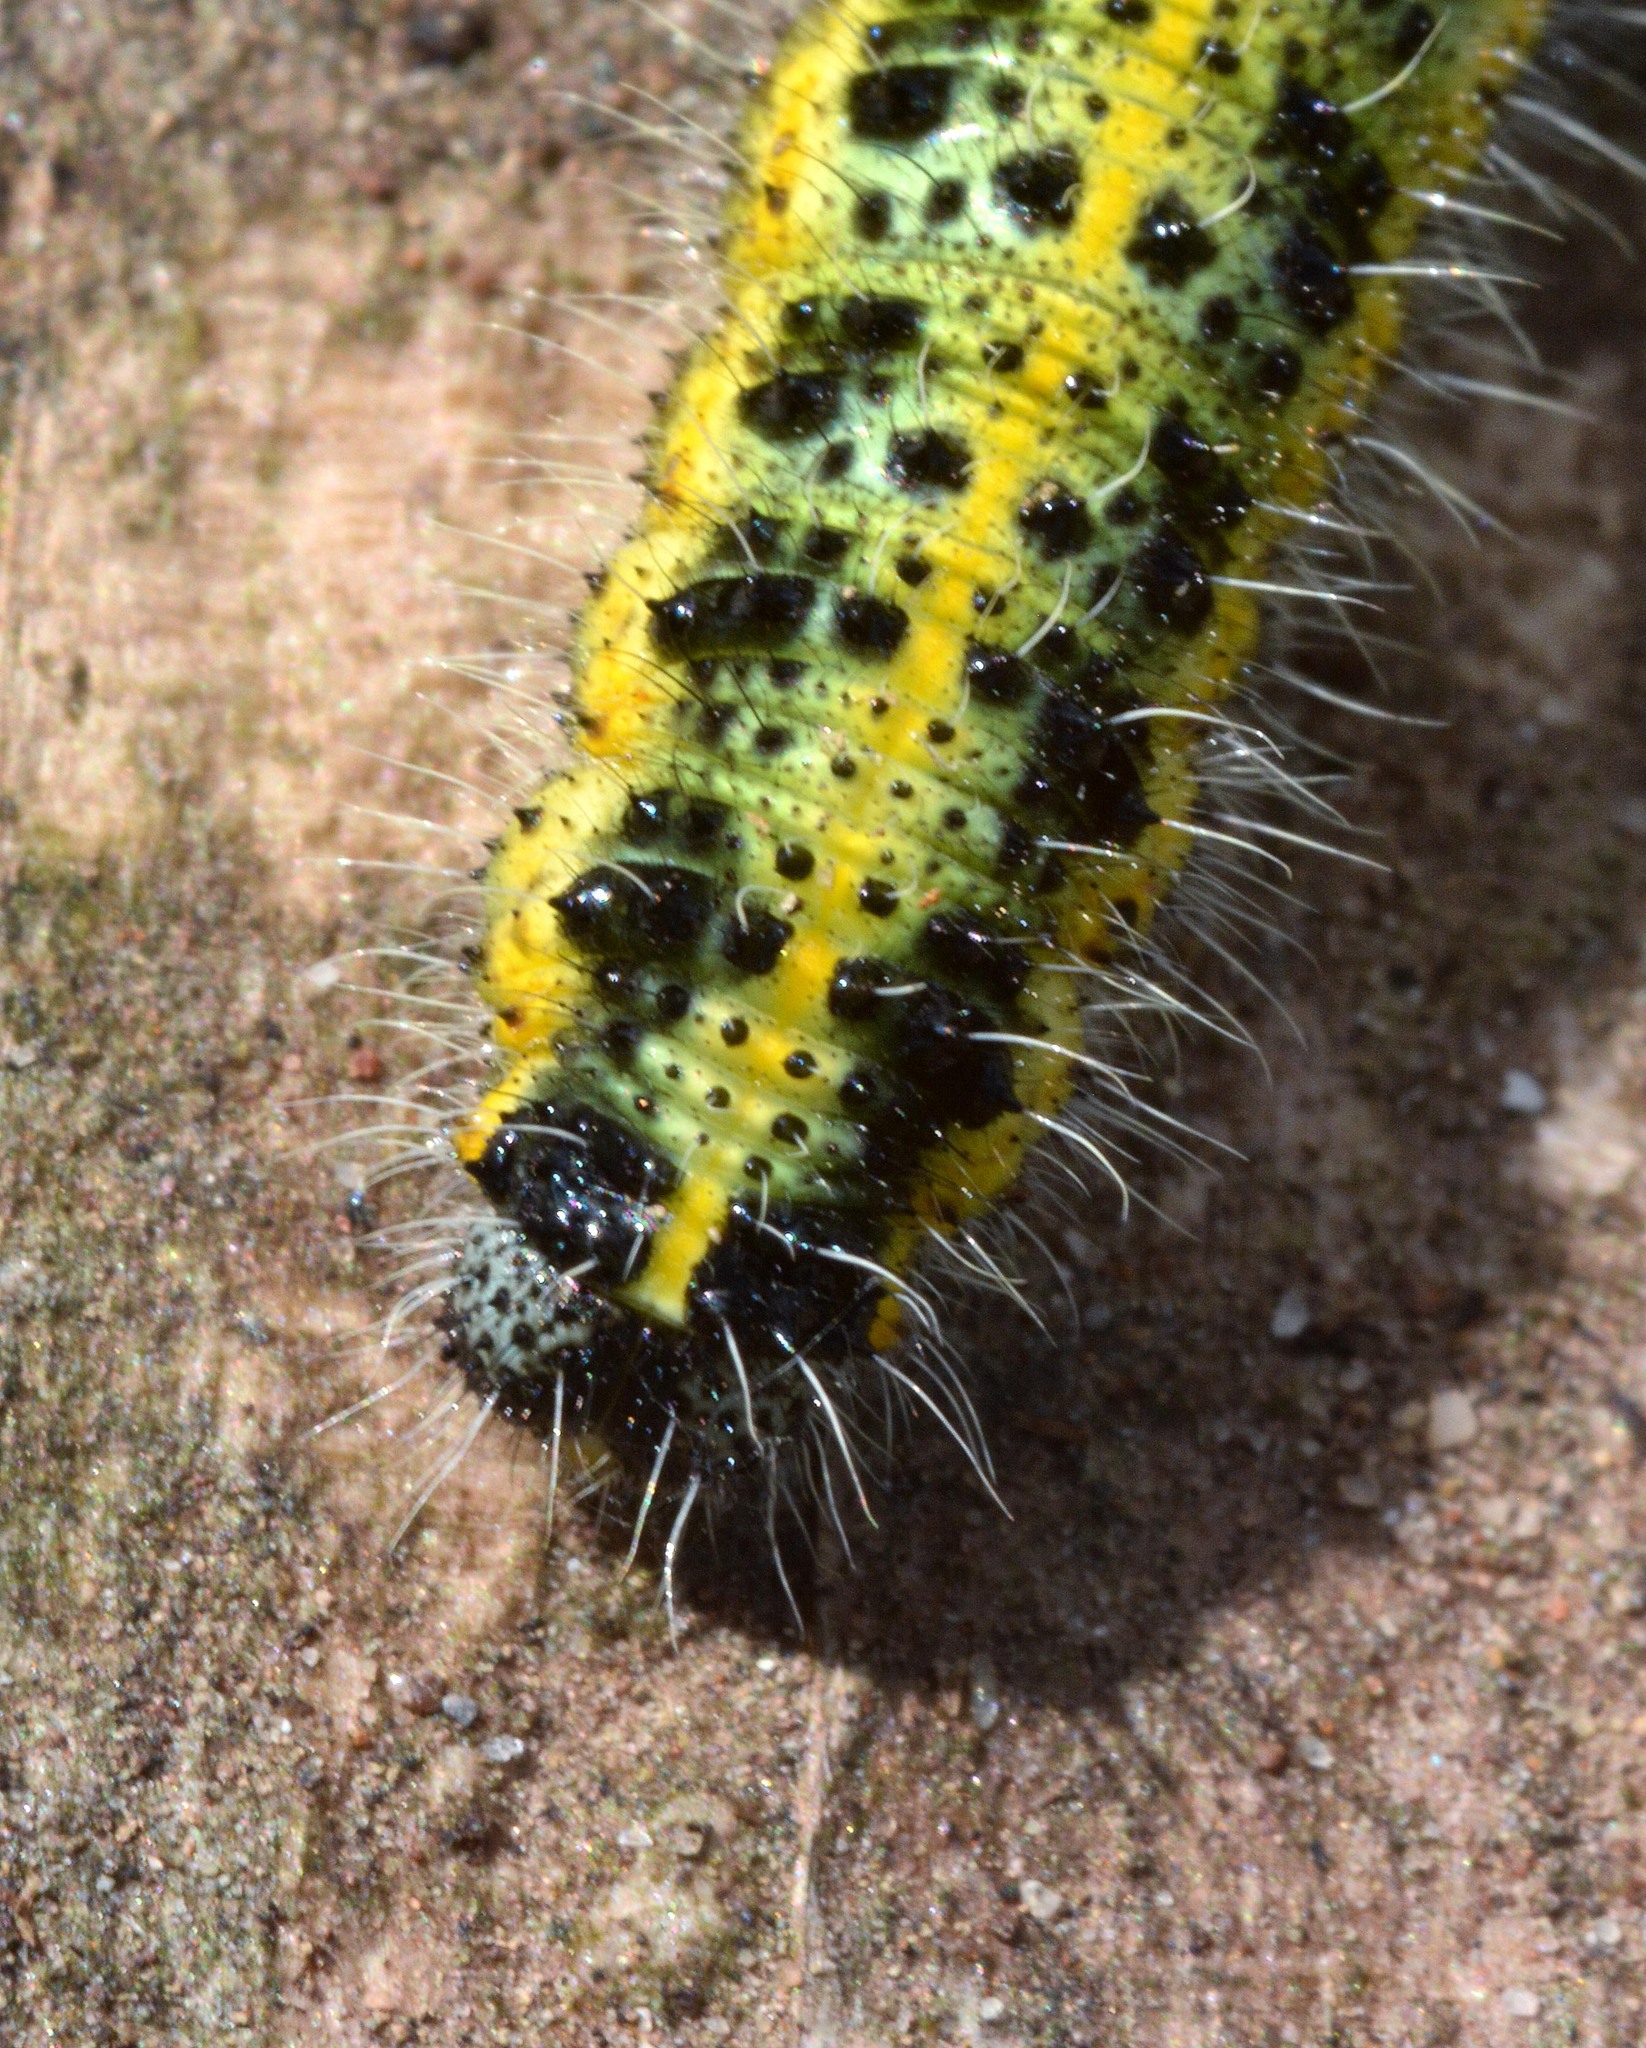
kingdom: Animalia
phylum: Arthropoda
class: Insecta
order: Lepidoptera
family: Pieridae
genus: Pieris
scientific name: Pieris brassicae
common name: Large white
